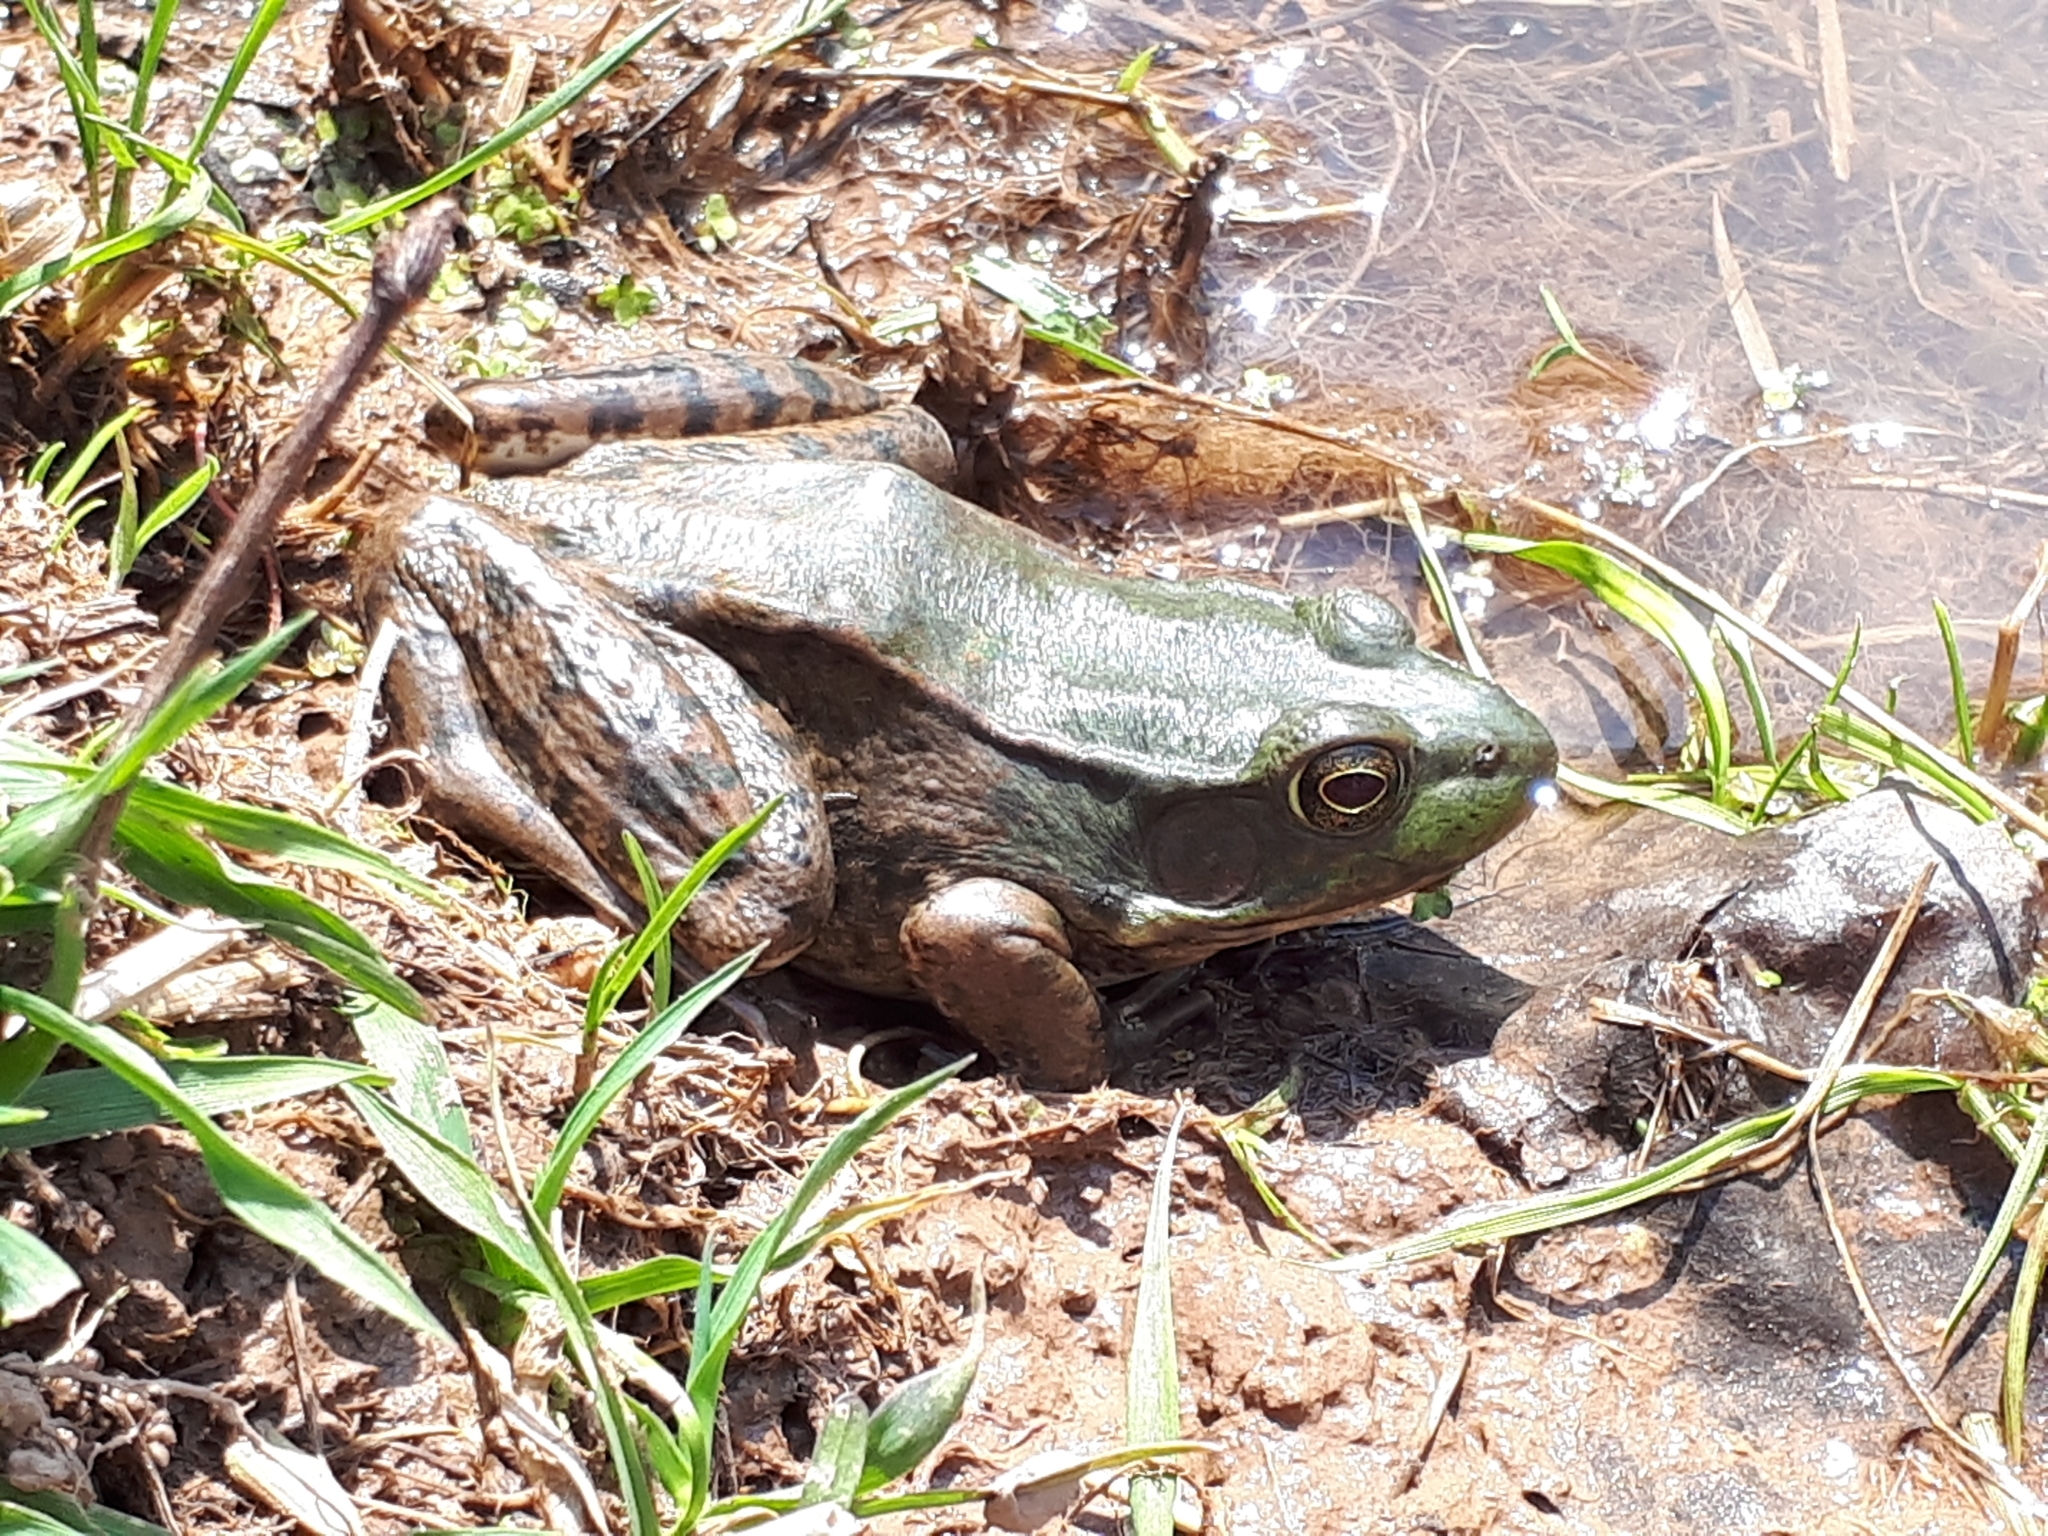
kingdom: Animalia
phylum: Chordata
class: Amphibia
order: Anura
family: Ranidae
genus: Lithobates
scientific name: Lithobates clamitans
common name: Green frog
